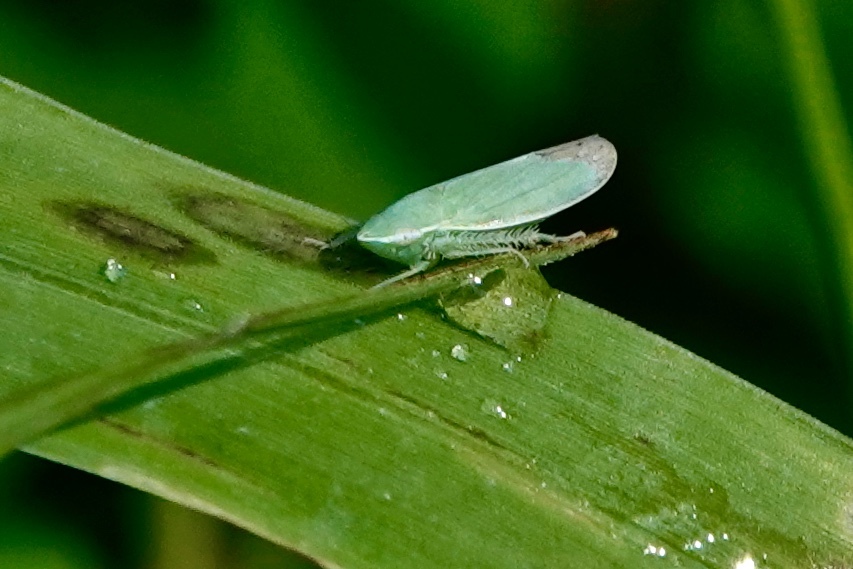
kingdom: Animalia
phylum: Arthropoda
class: Insecta
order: Hemiptera
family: Cicadellidae
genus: Memnonia
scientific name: Memnonia flavida
